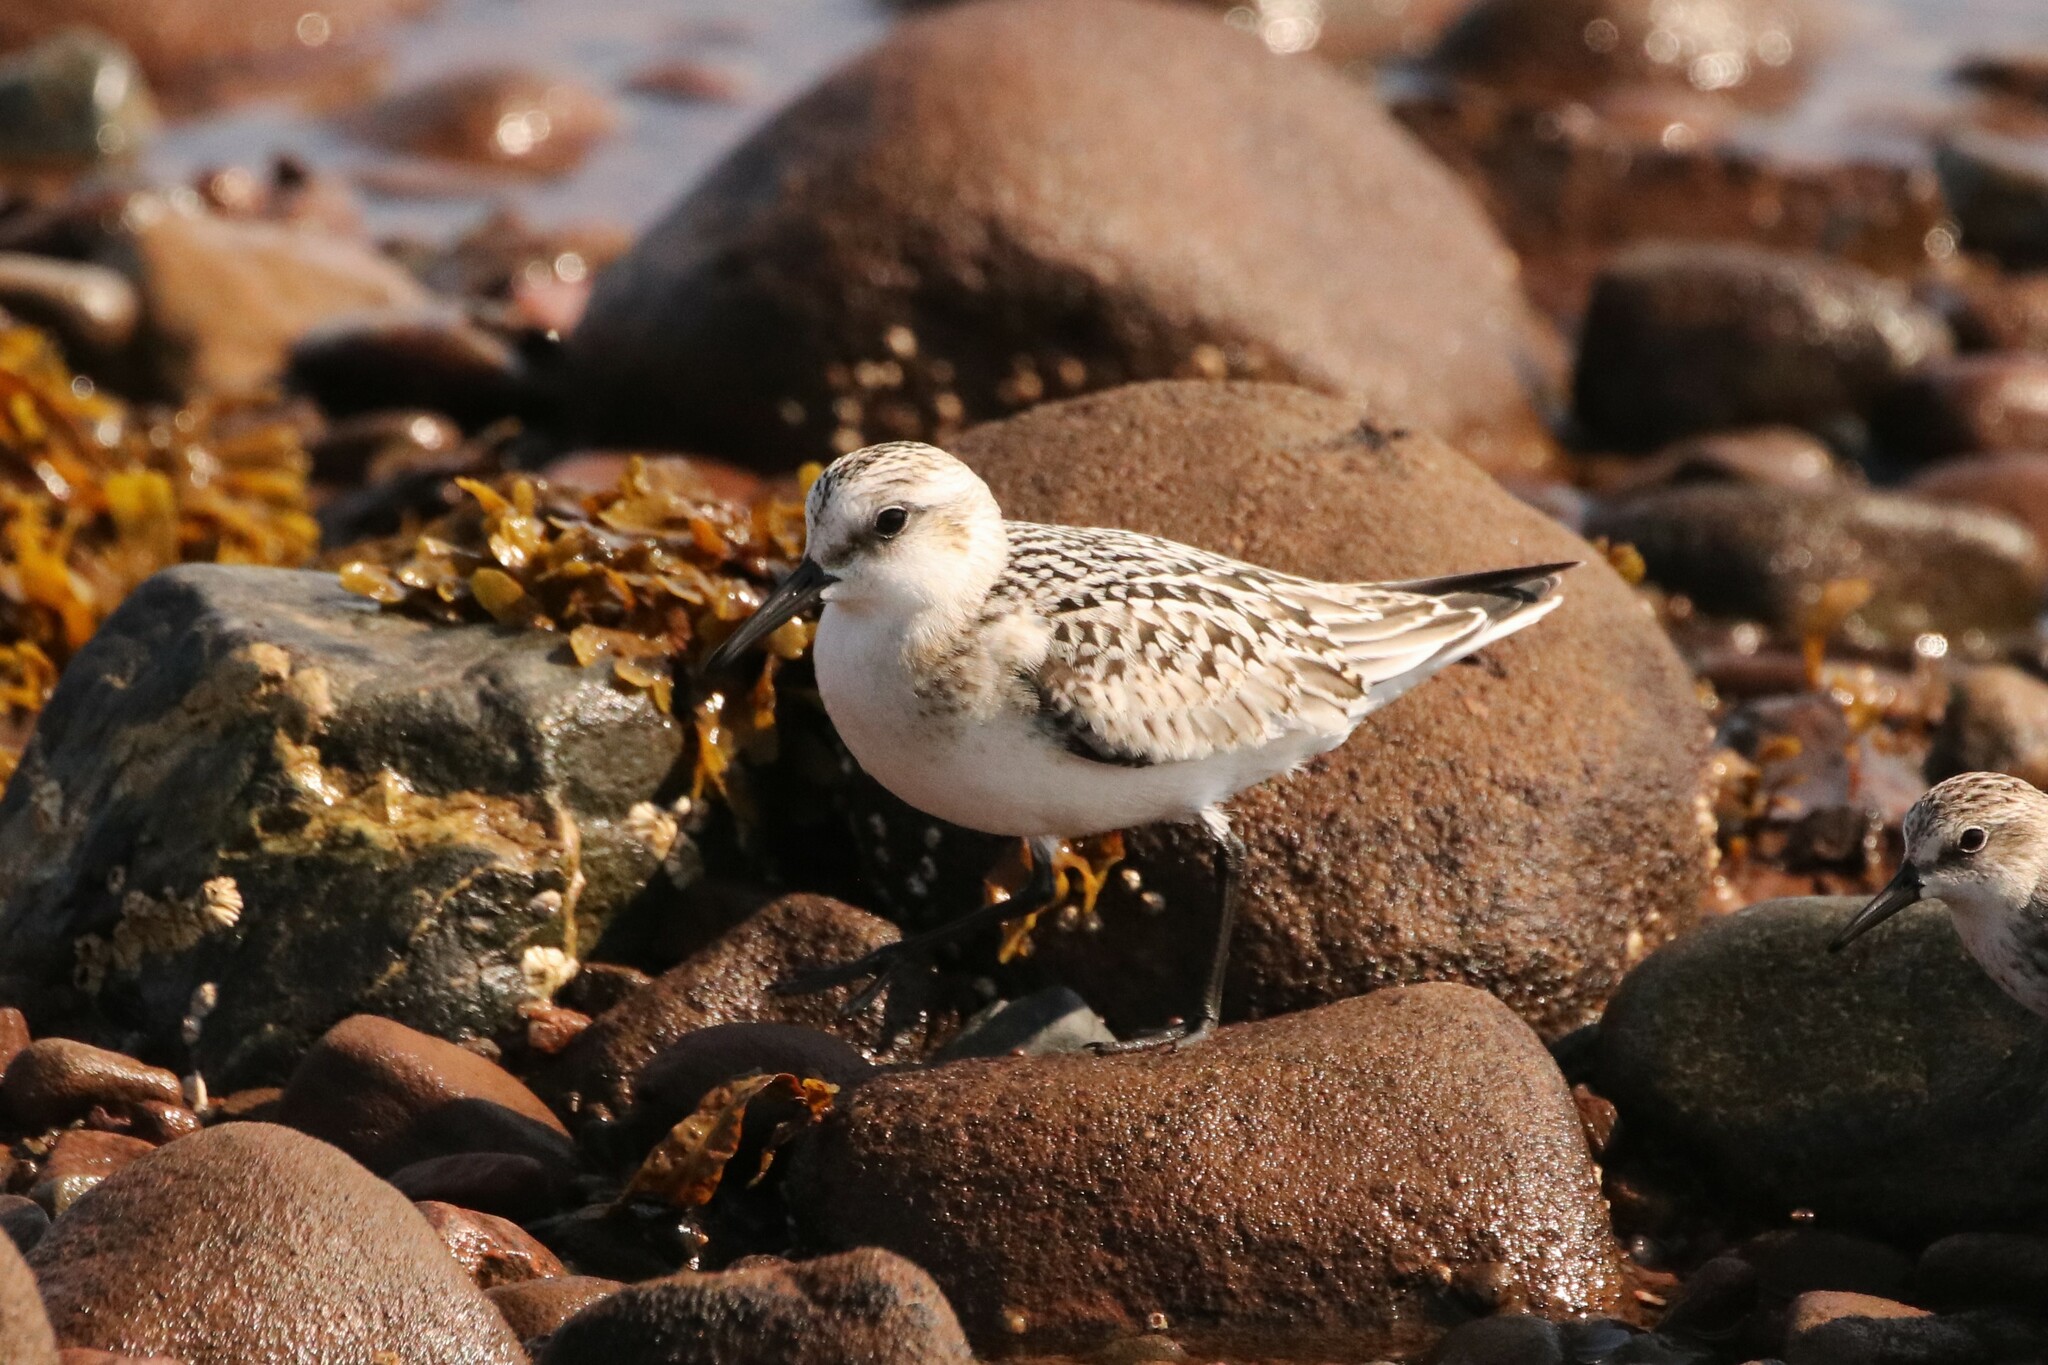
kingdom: Animalia
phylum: Chordata
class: Aves
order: Charadriiformes
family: Scolopacidae
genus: Calidris
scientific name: Calidris alba
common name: Sanderling
